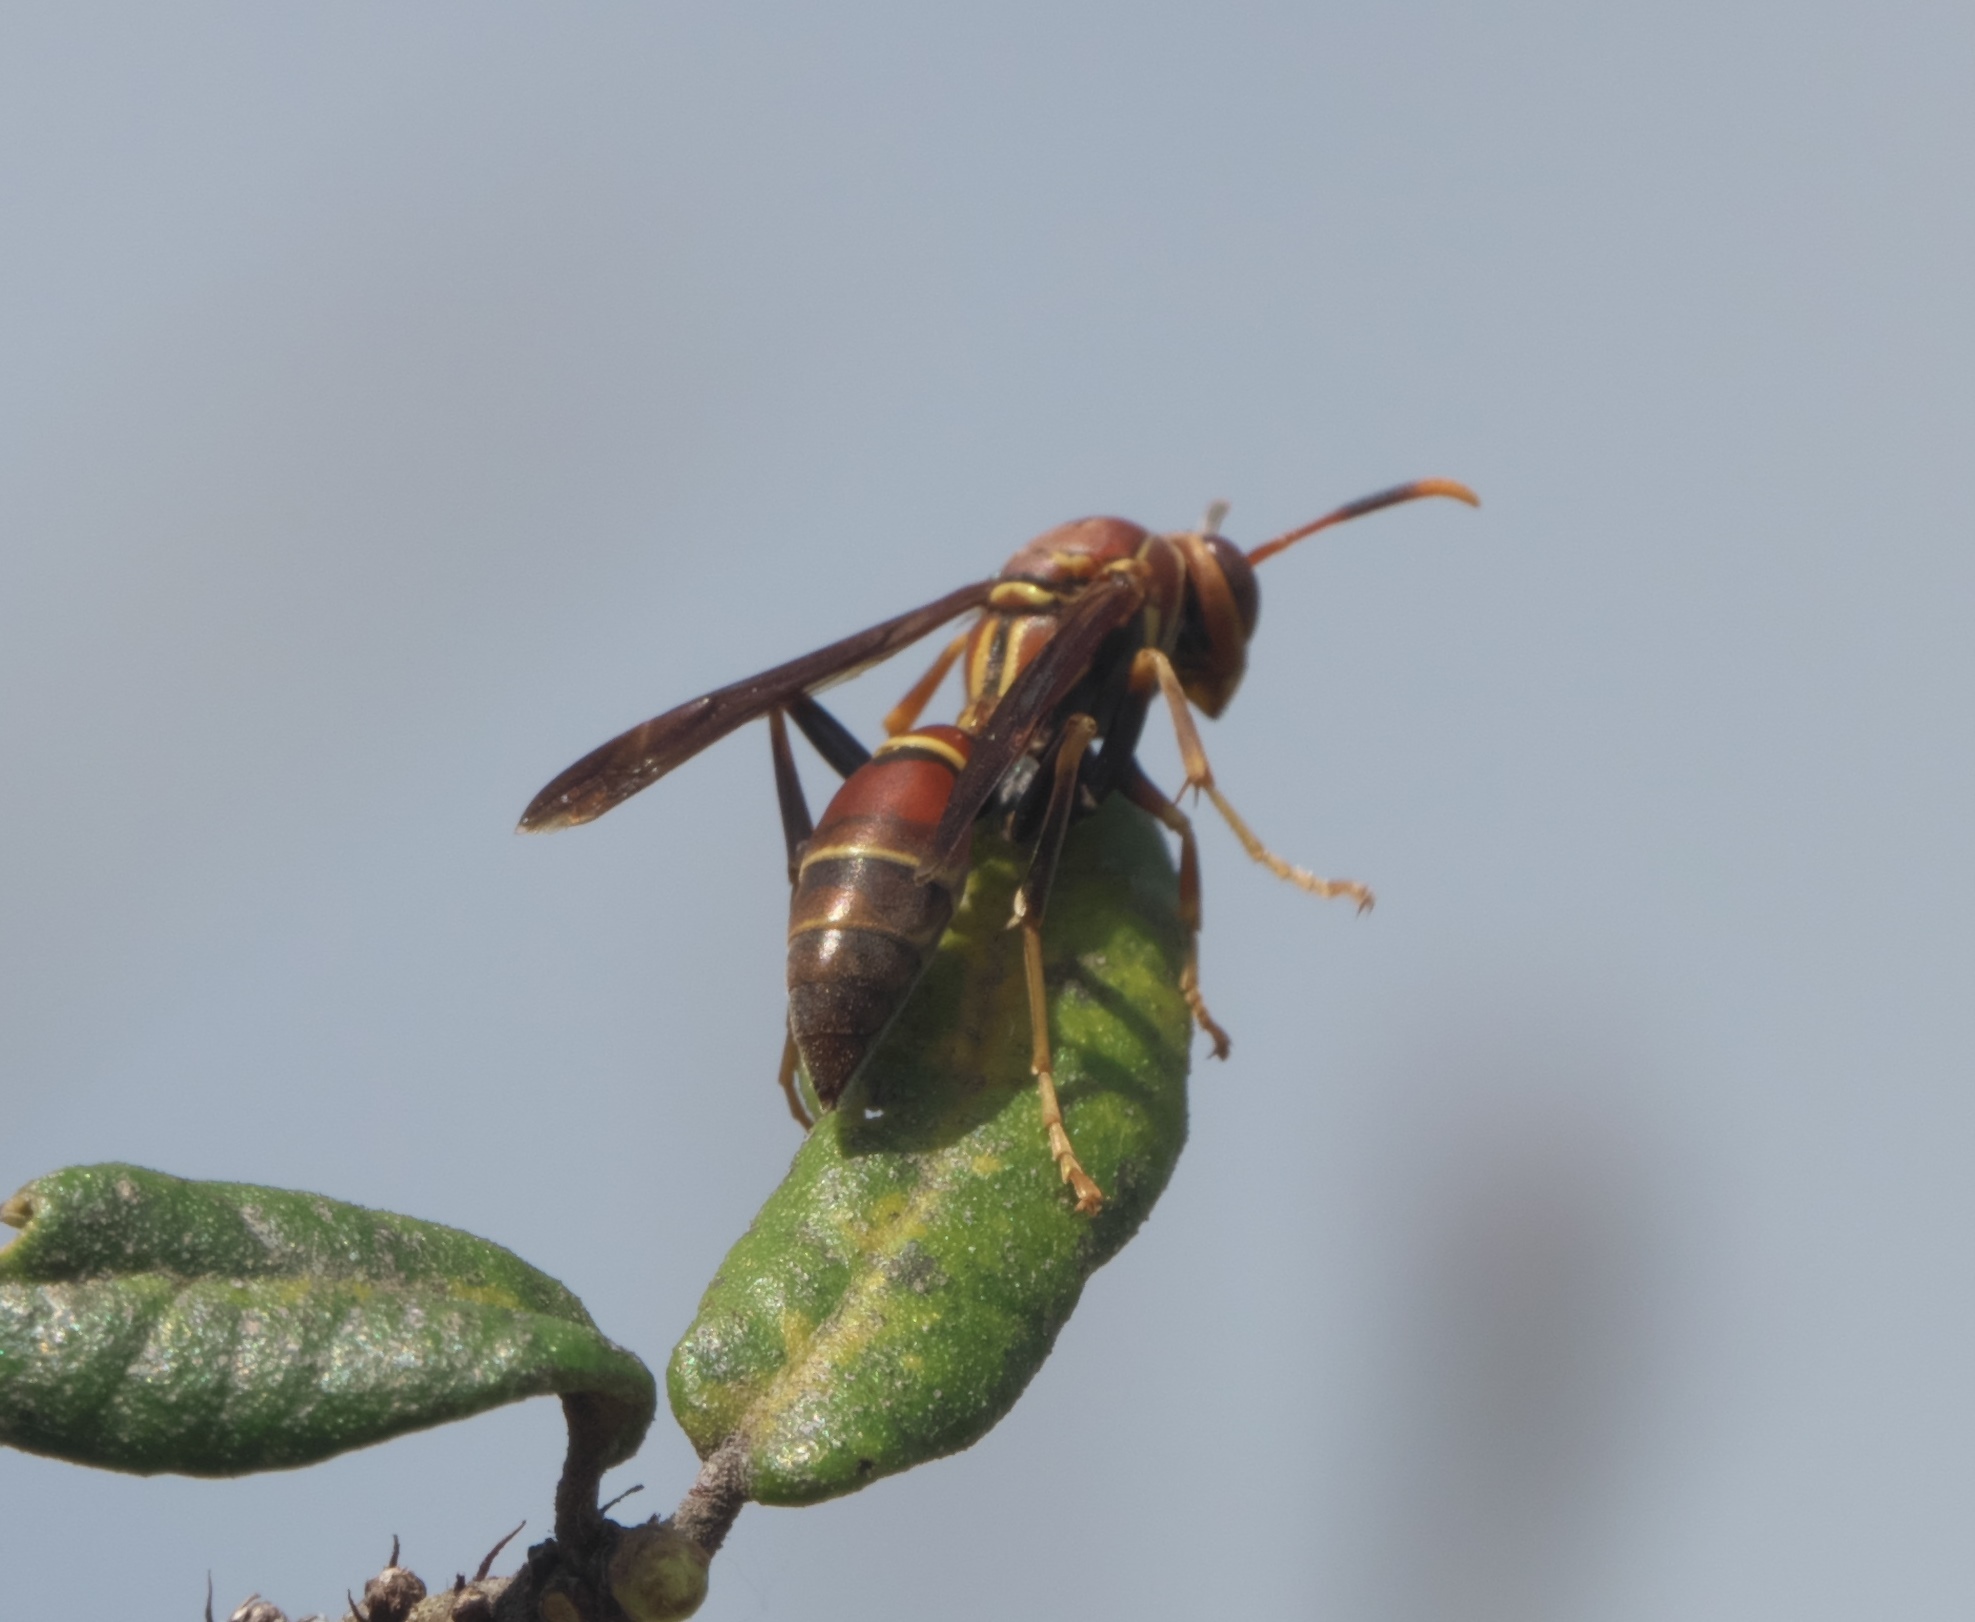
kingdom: Animalia
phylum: Arthropoda
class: Insecta
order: Hymenoptera
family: Eumenidae
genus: Polistes
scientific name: Polistes bahamensis
